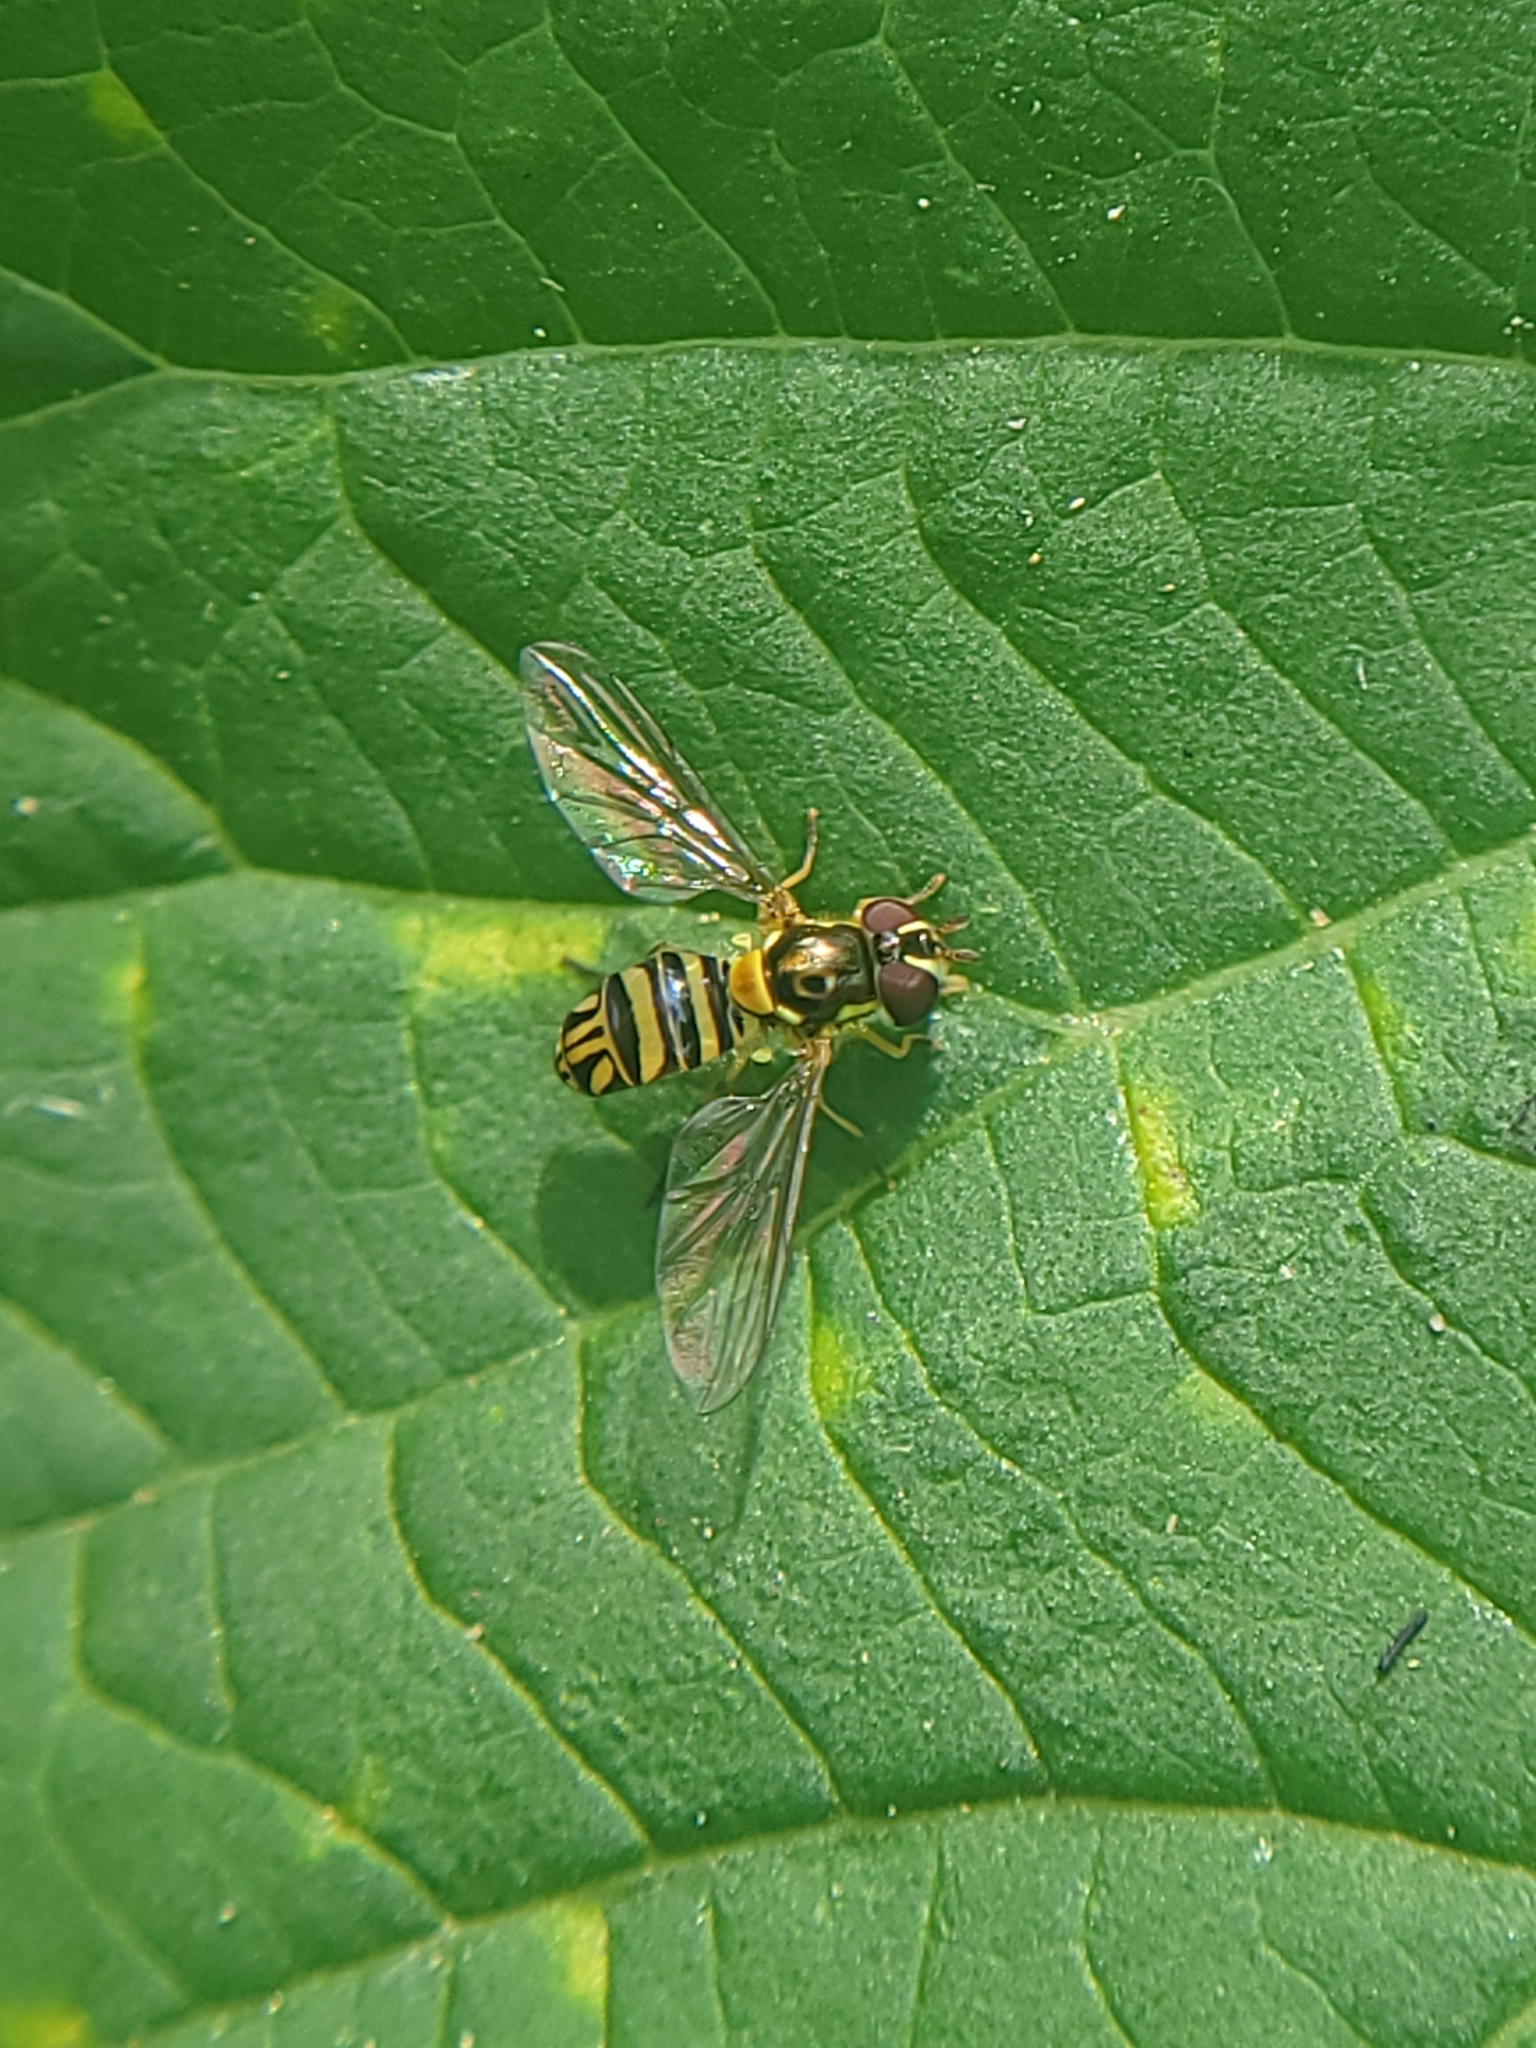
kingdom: Animalia
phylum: Arthropoda
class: Insecta
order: Diptera
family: Syrphidae
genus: Allograpta
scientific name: Allograpta obliqua
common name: Common oblique syrphid
